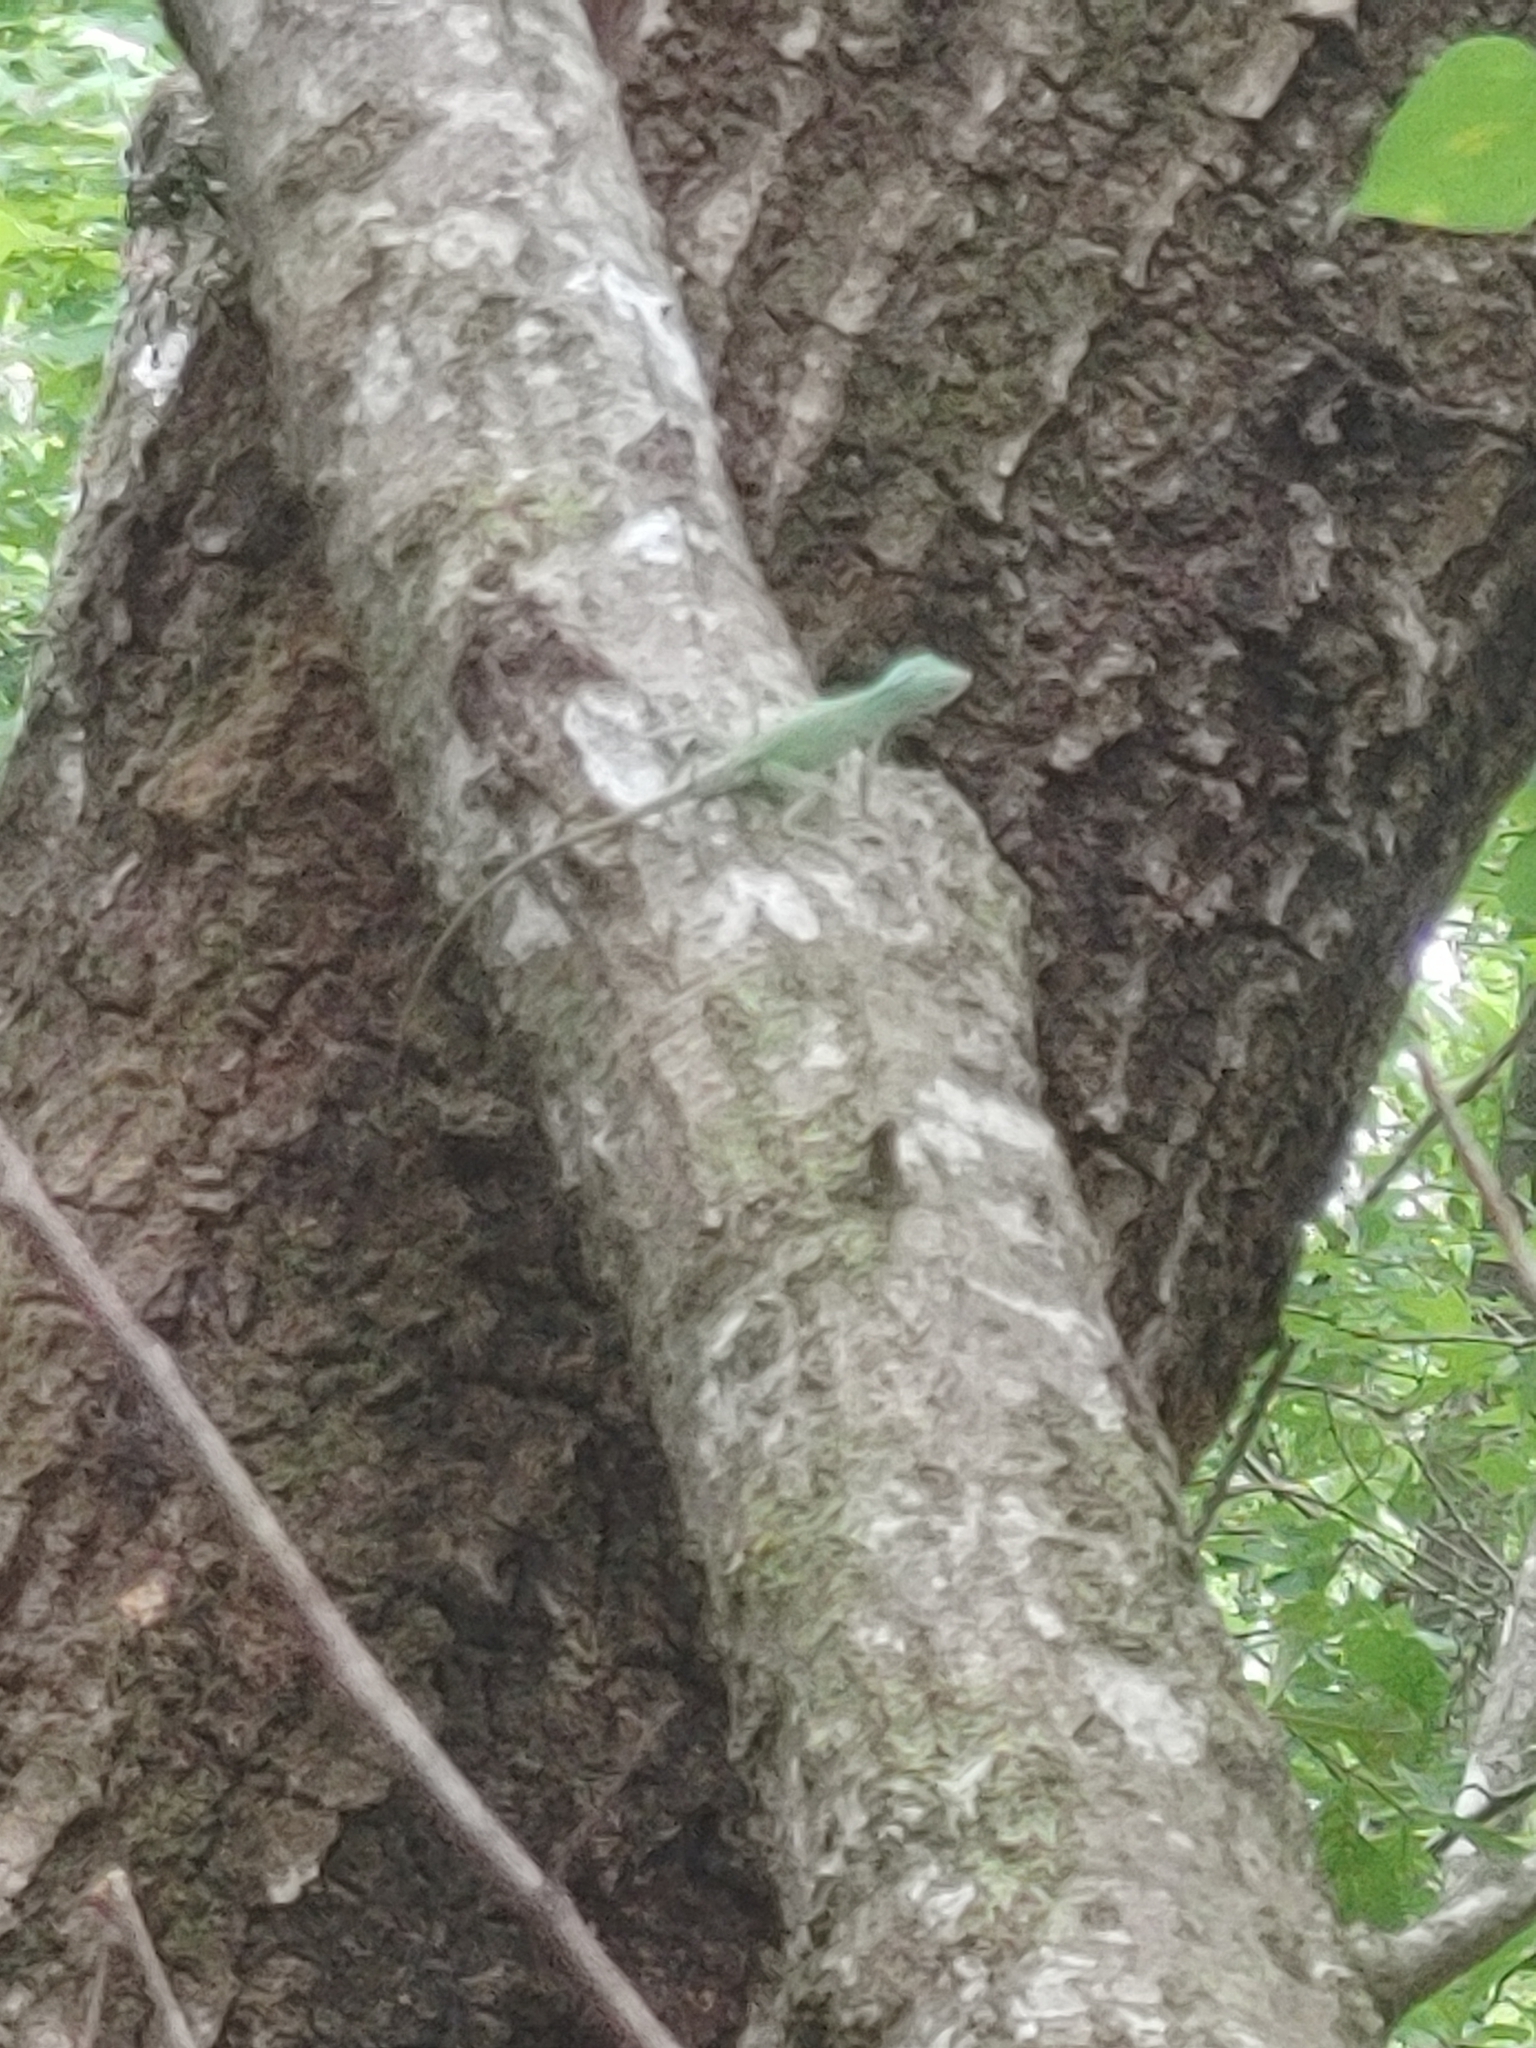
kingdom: Animalia
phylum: Chordata
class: Squamata
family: Dactyloidae
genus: Anolis
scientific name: Anolis carolinensis
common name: Green anole
